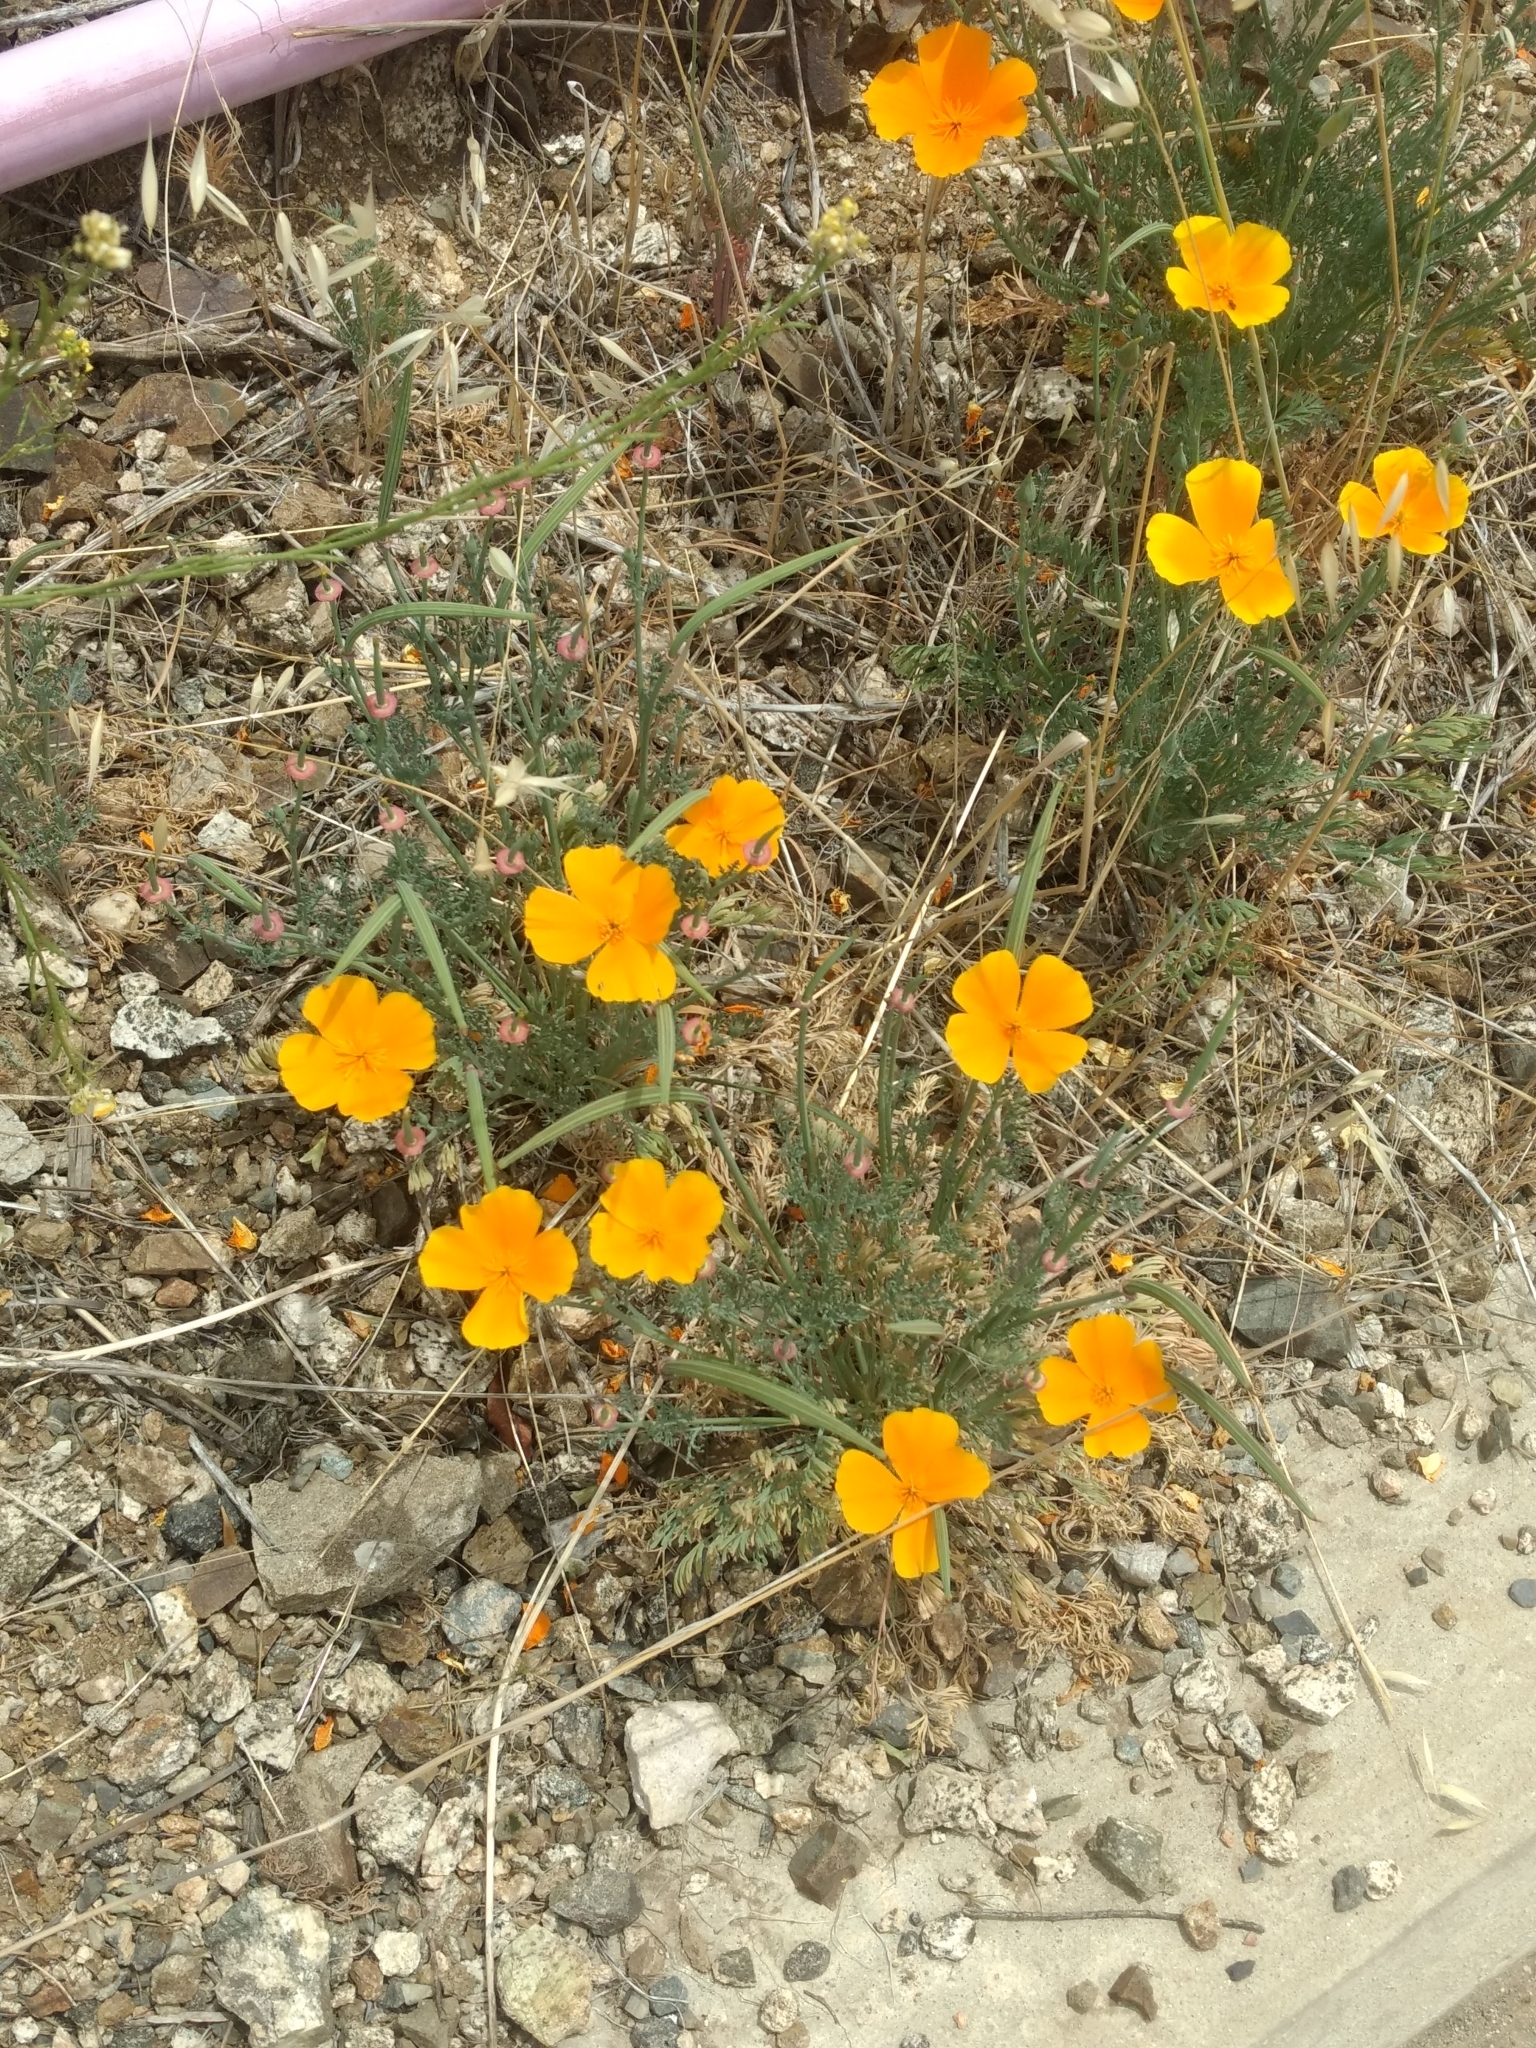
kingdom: Plantae
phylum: Tracheophyta
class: Magnoliopsida
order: Ranunculales
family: Papaveraceae
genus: Eschscholzia
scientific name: Eschscholzia californica
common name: California poppy
